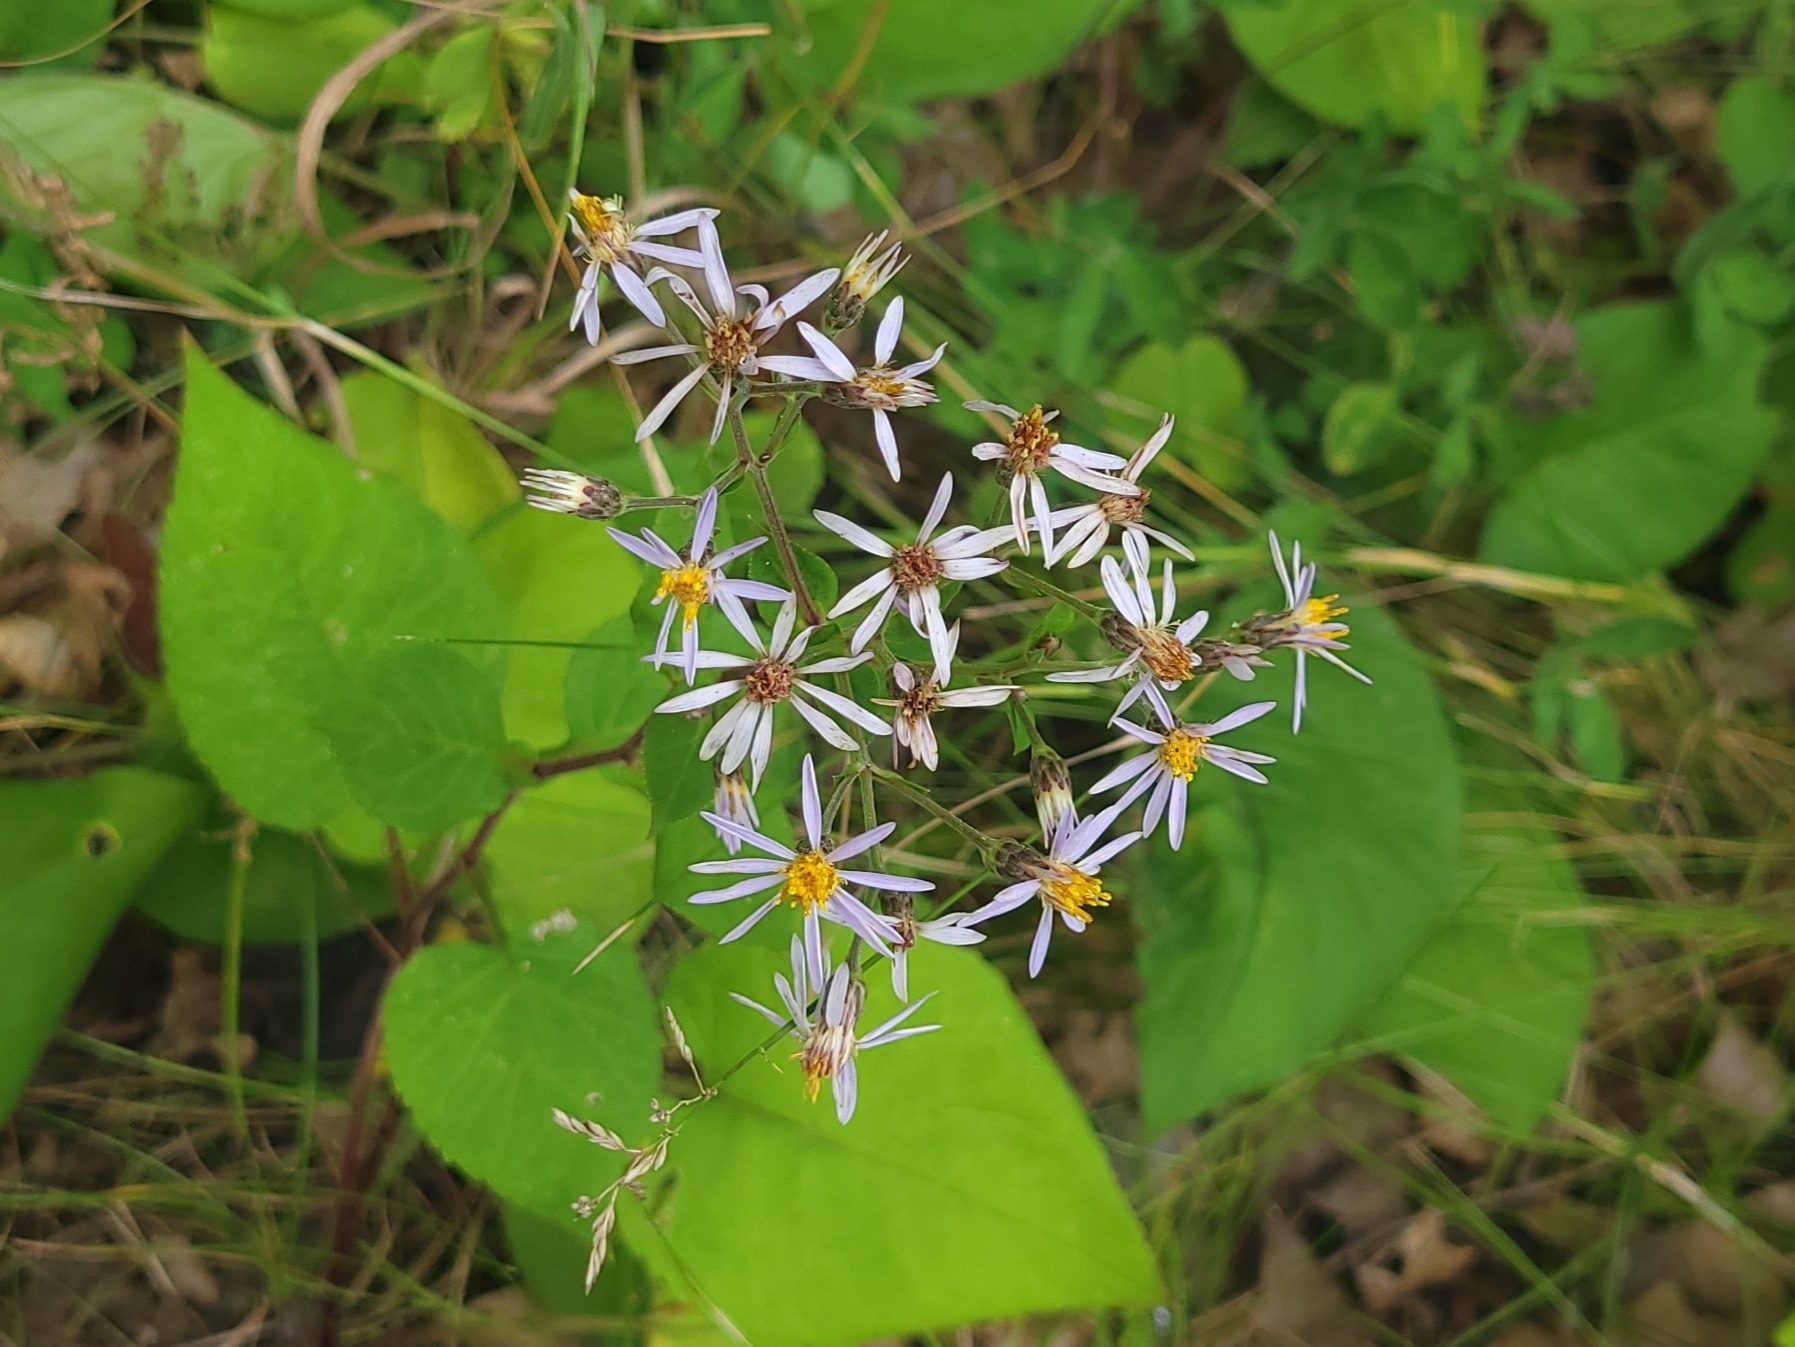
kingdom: Plantae
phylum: Tracheophyta
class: Magnoliopsida
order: Asterales
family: Asteraceae
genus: Eurybia
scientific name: Eurybia macrophylla
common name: Big-leaved aster
